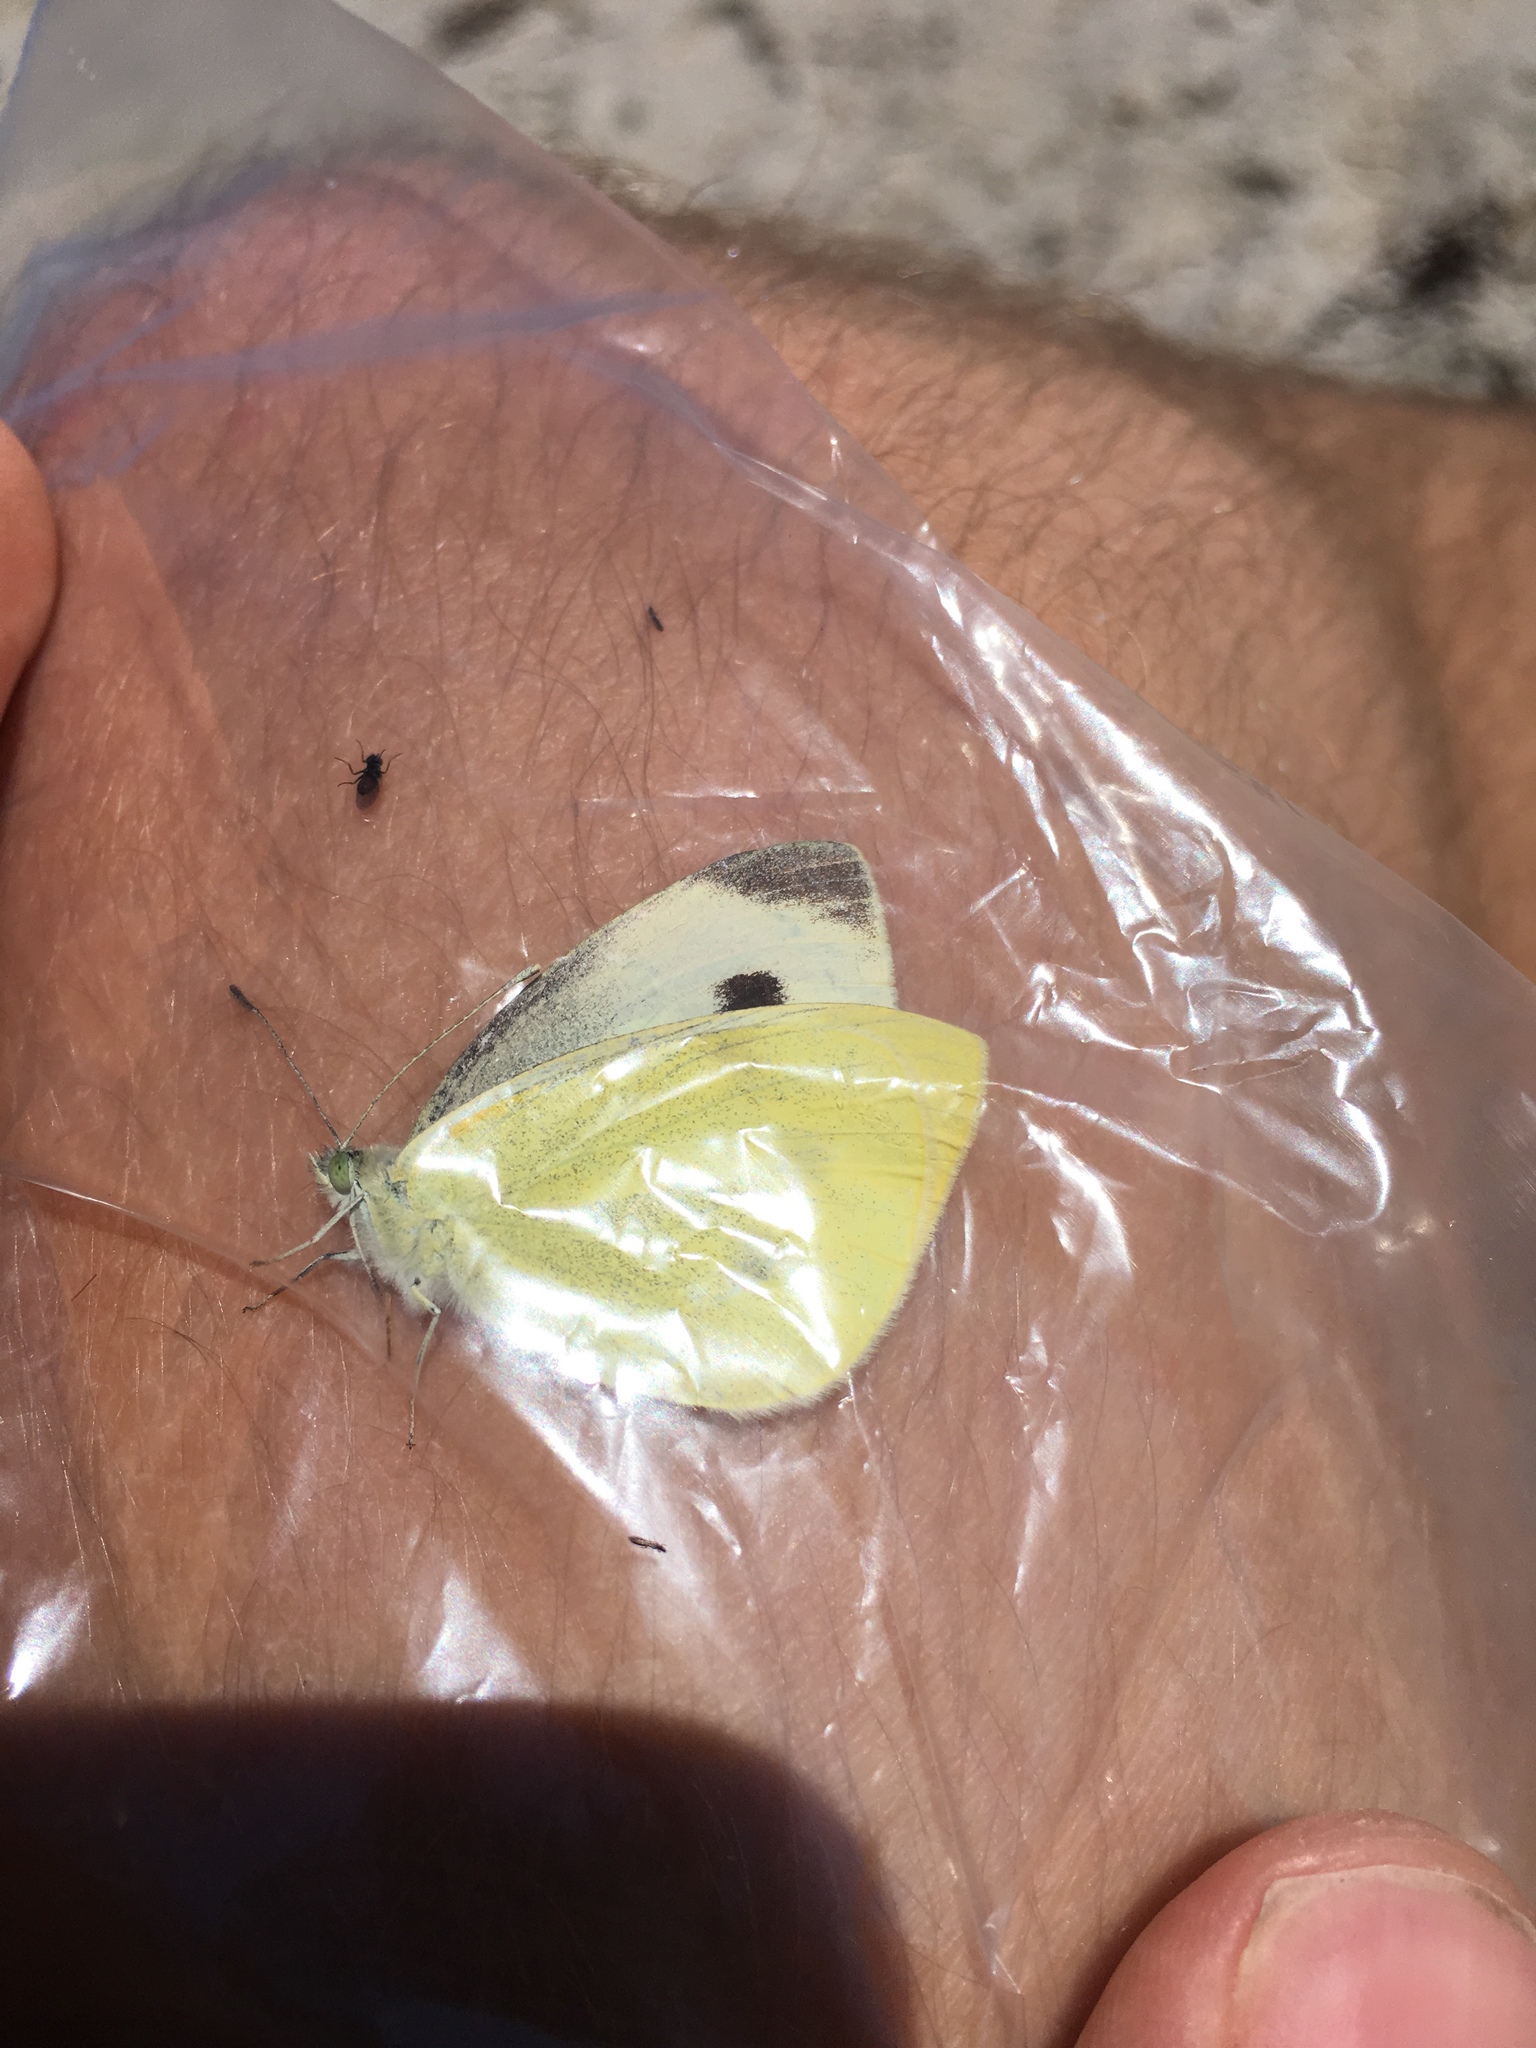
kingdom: Animalia
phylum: Arthropoda
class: Insecta
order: Lepidoptera
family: Pieridae
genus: Pieris
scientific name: Pieris rapae
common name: Small white
